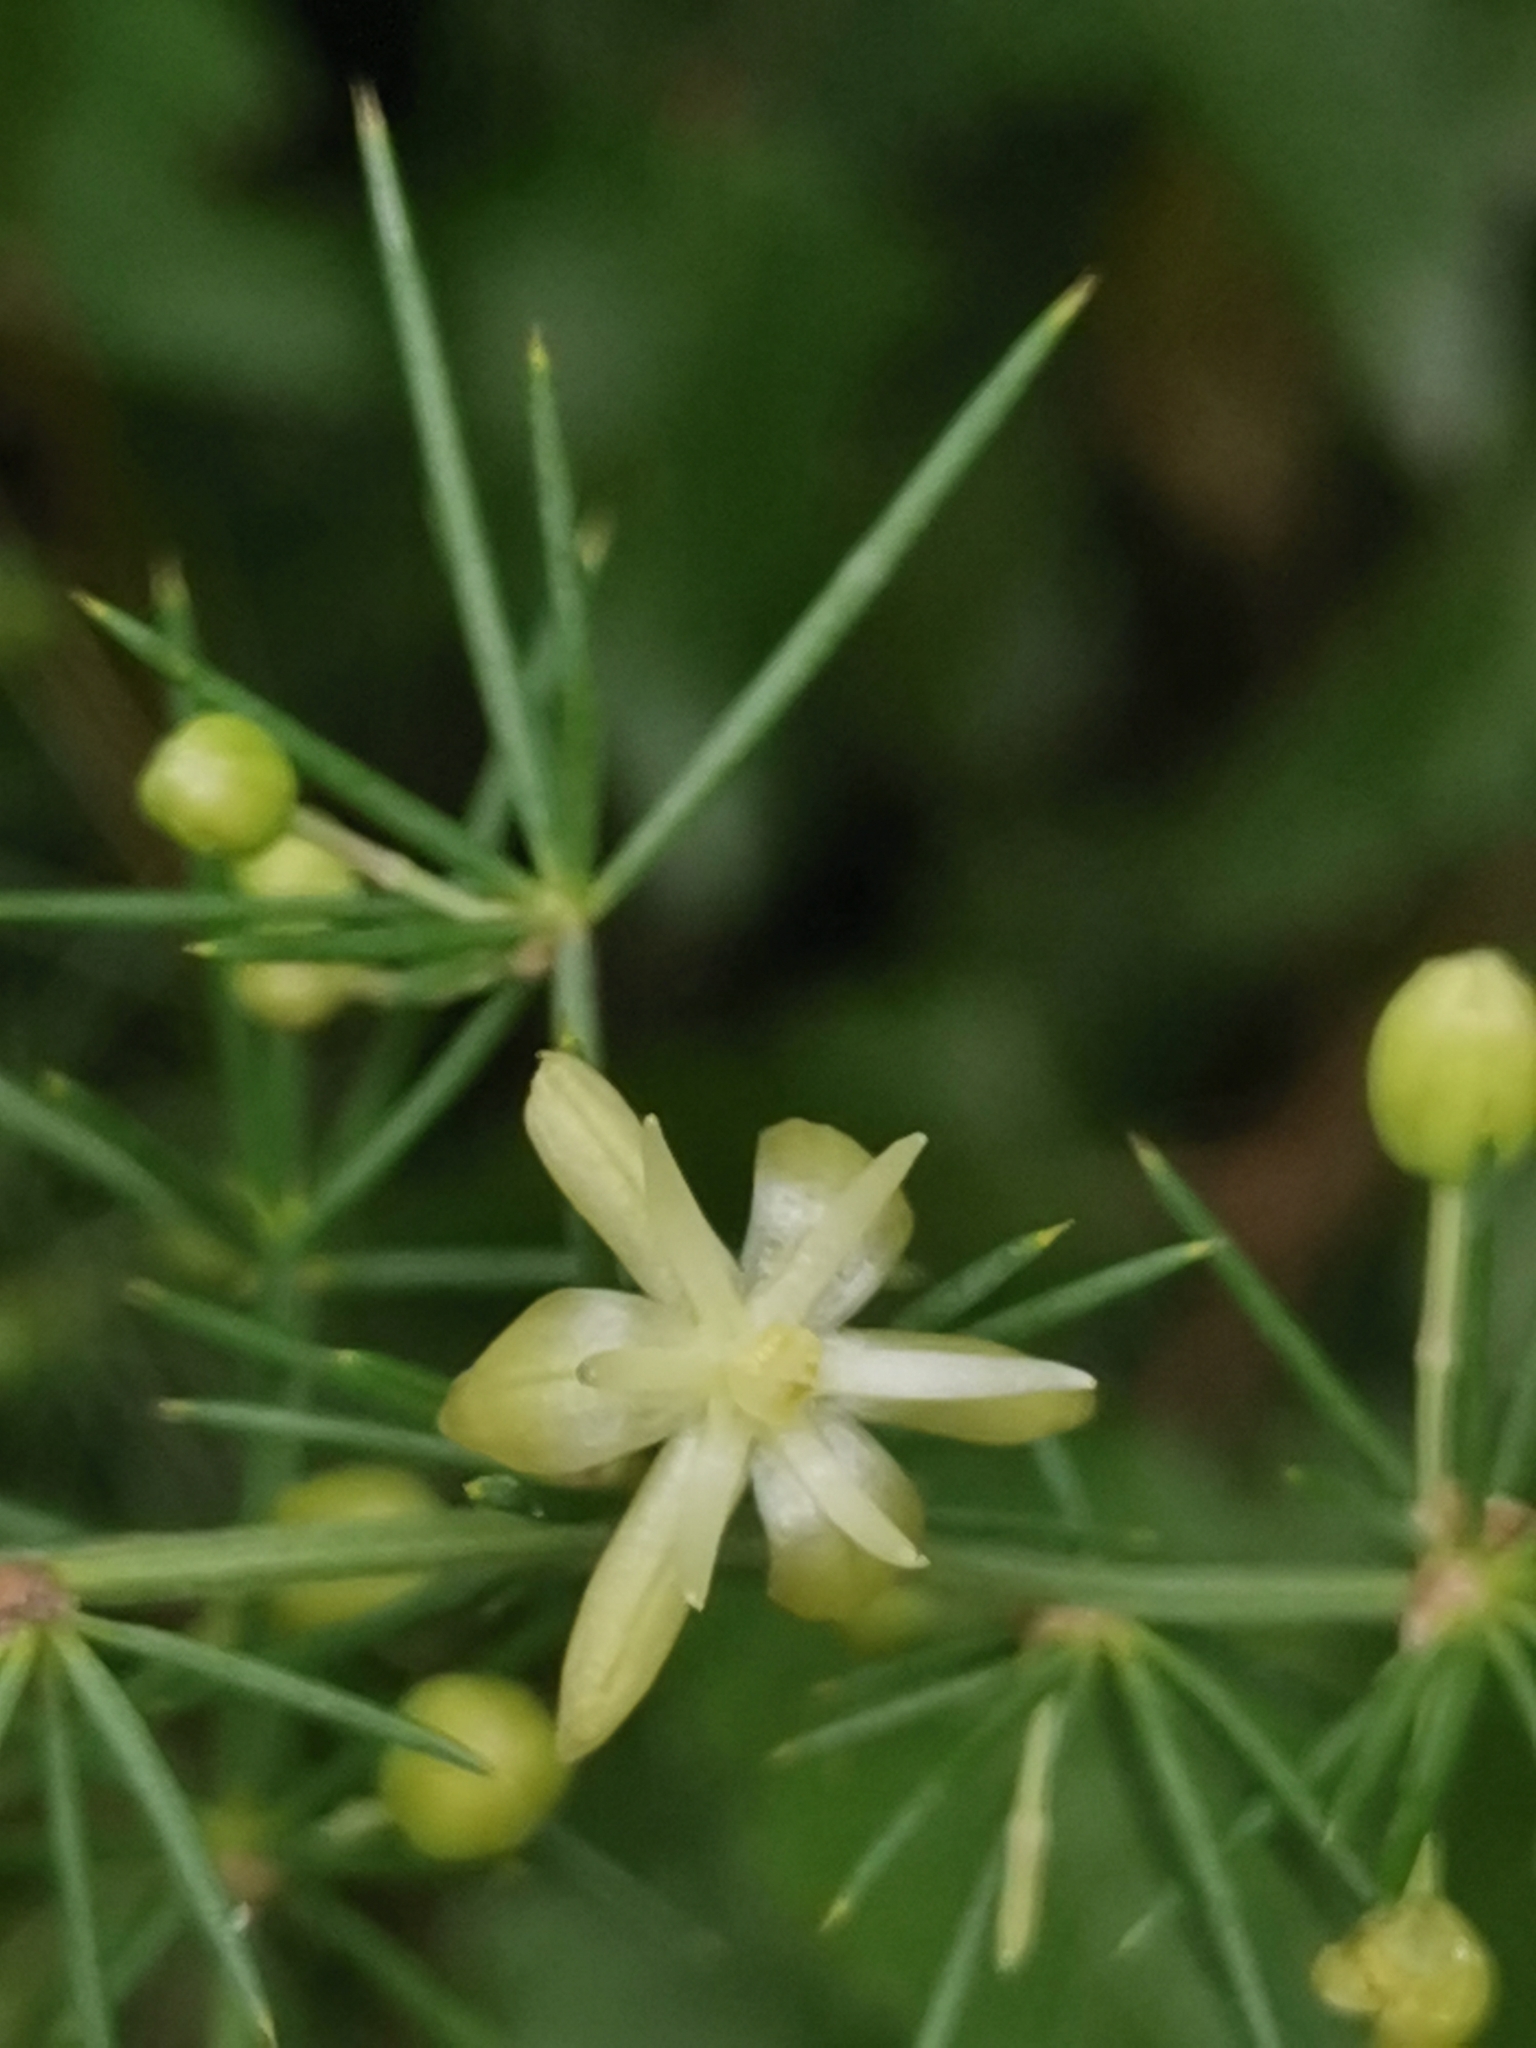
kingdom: Plantae
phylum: Tracheophyta
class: Liliopsida
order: Asparagales
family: Asparagaceae
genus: Asparagus
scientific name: Asparagus acutifolius
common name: Wild asparagus
